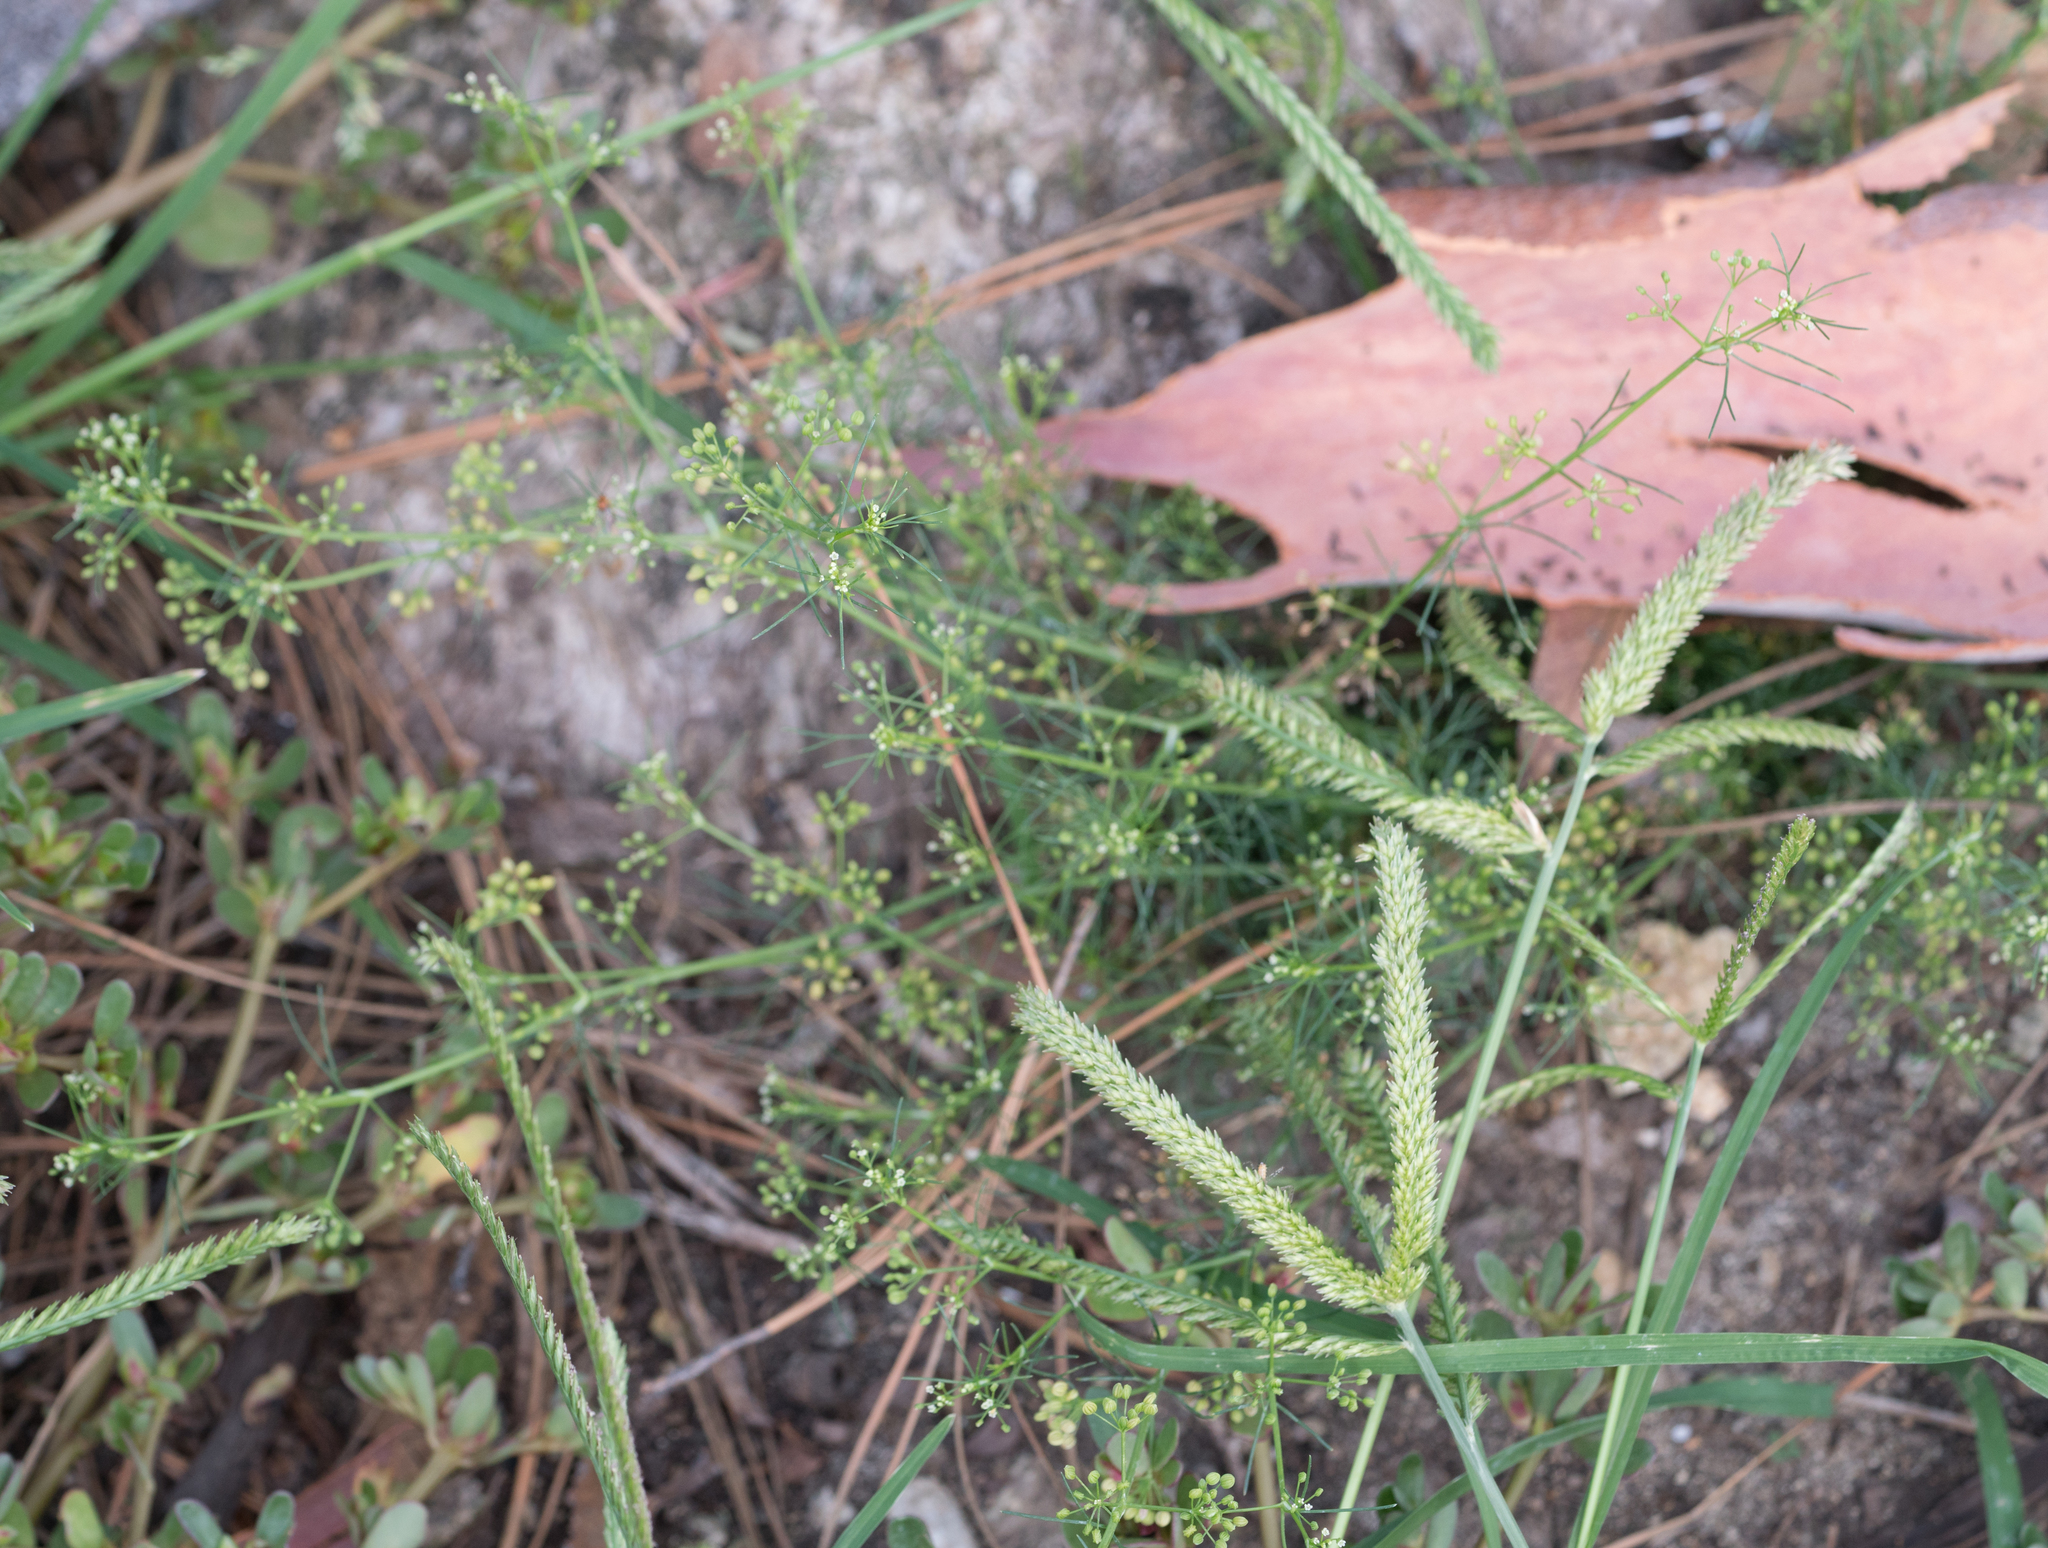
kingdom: Plantae
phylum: Tracheophyta
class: Magnoliopsida
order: Apiales
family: Apiaceae
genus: Cyclospermum
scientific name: Cyclospermum leptophyllum
